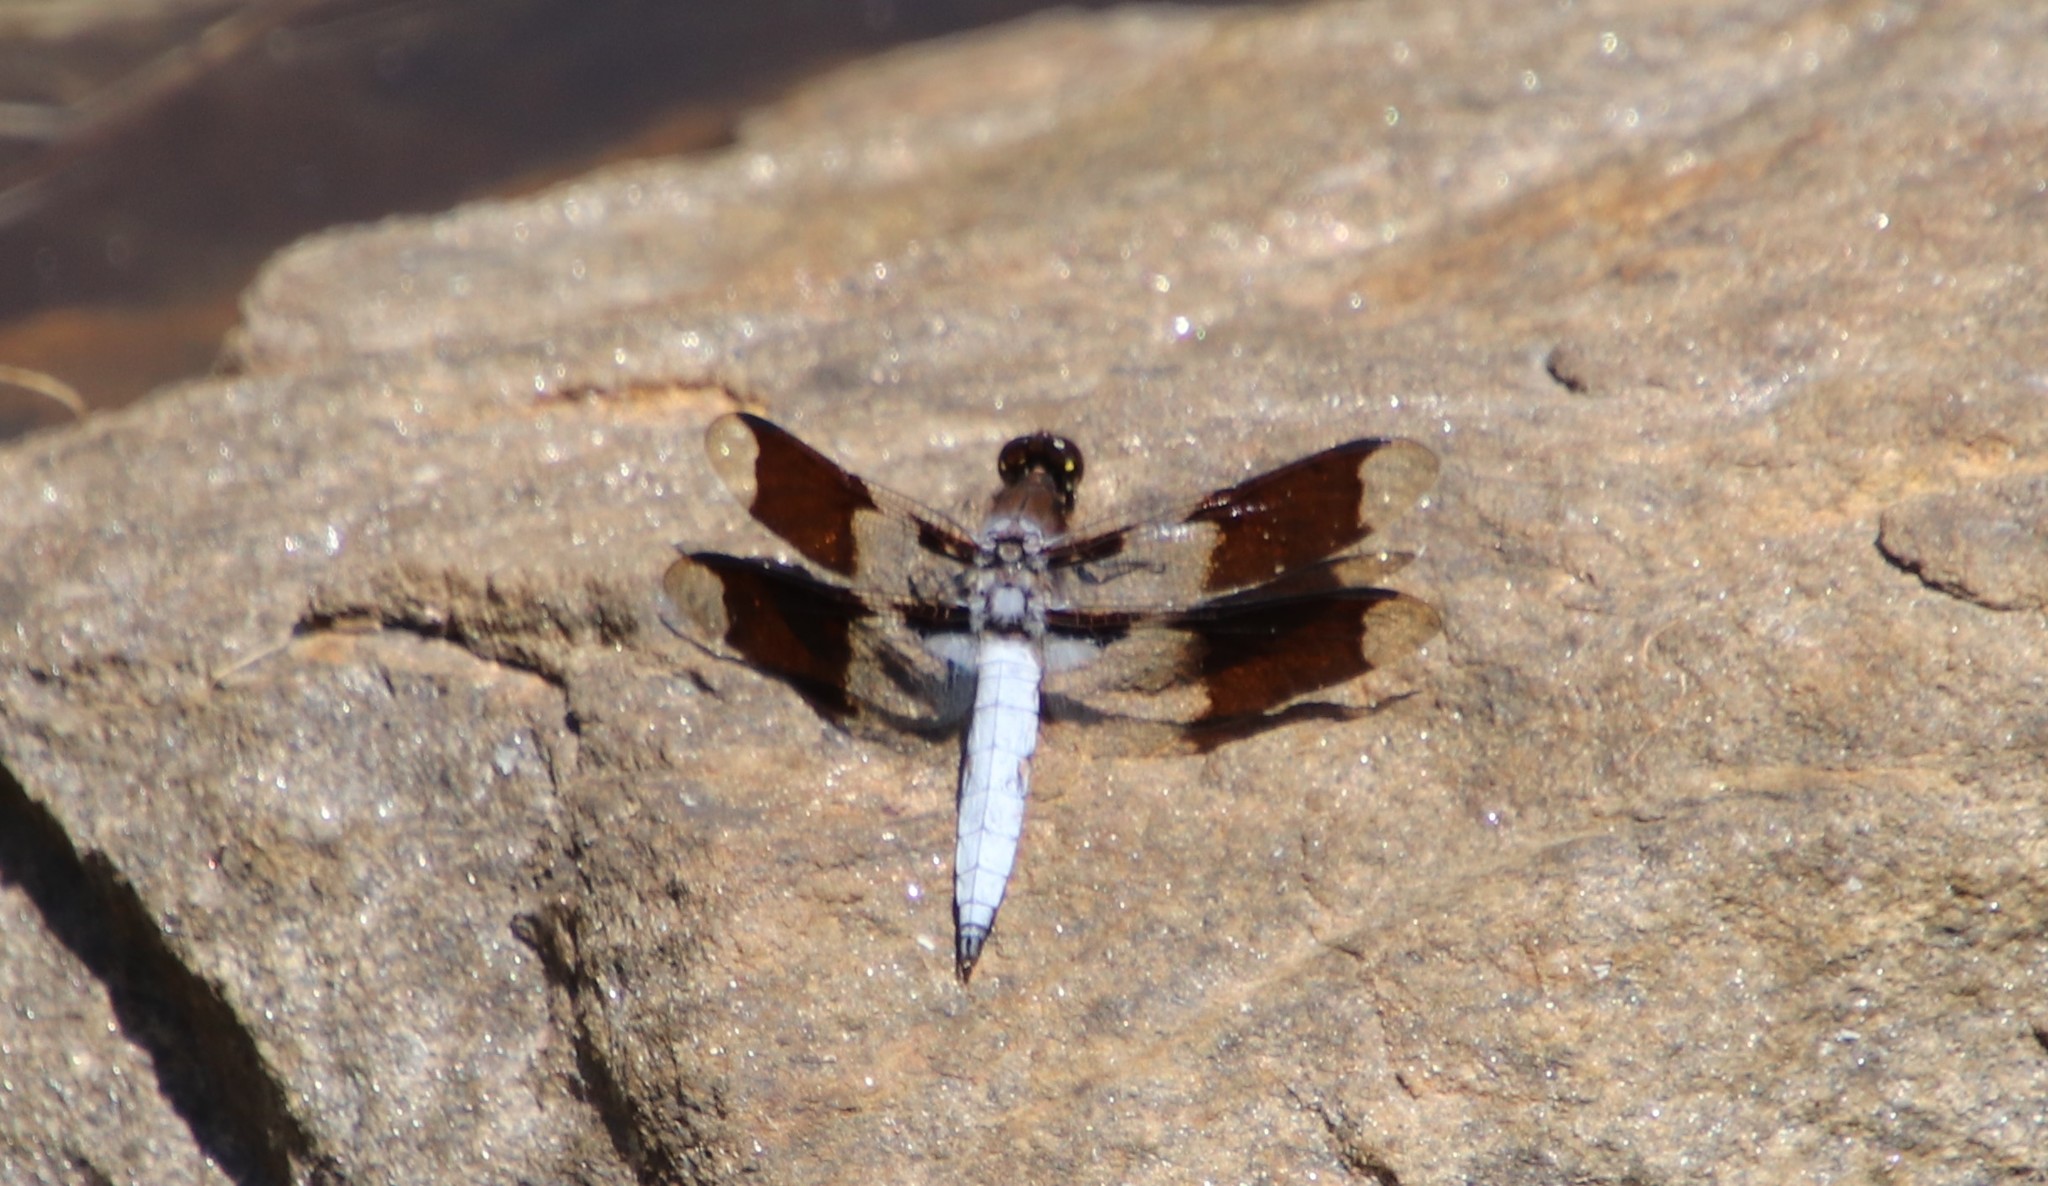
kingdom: Animalia
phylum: Arthropoda
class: Insecta
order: Odonata
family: Libellulidae
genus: Plathemis
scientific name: Plathemis lydia
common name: Common whitetail
